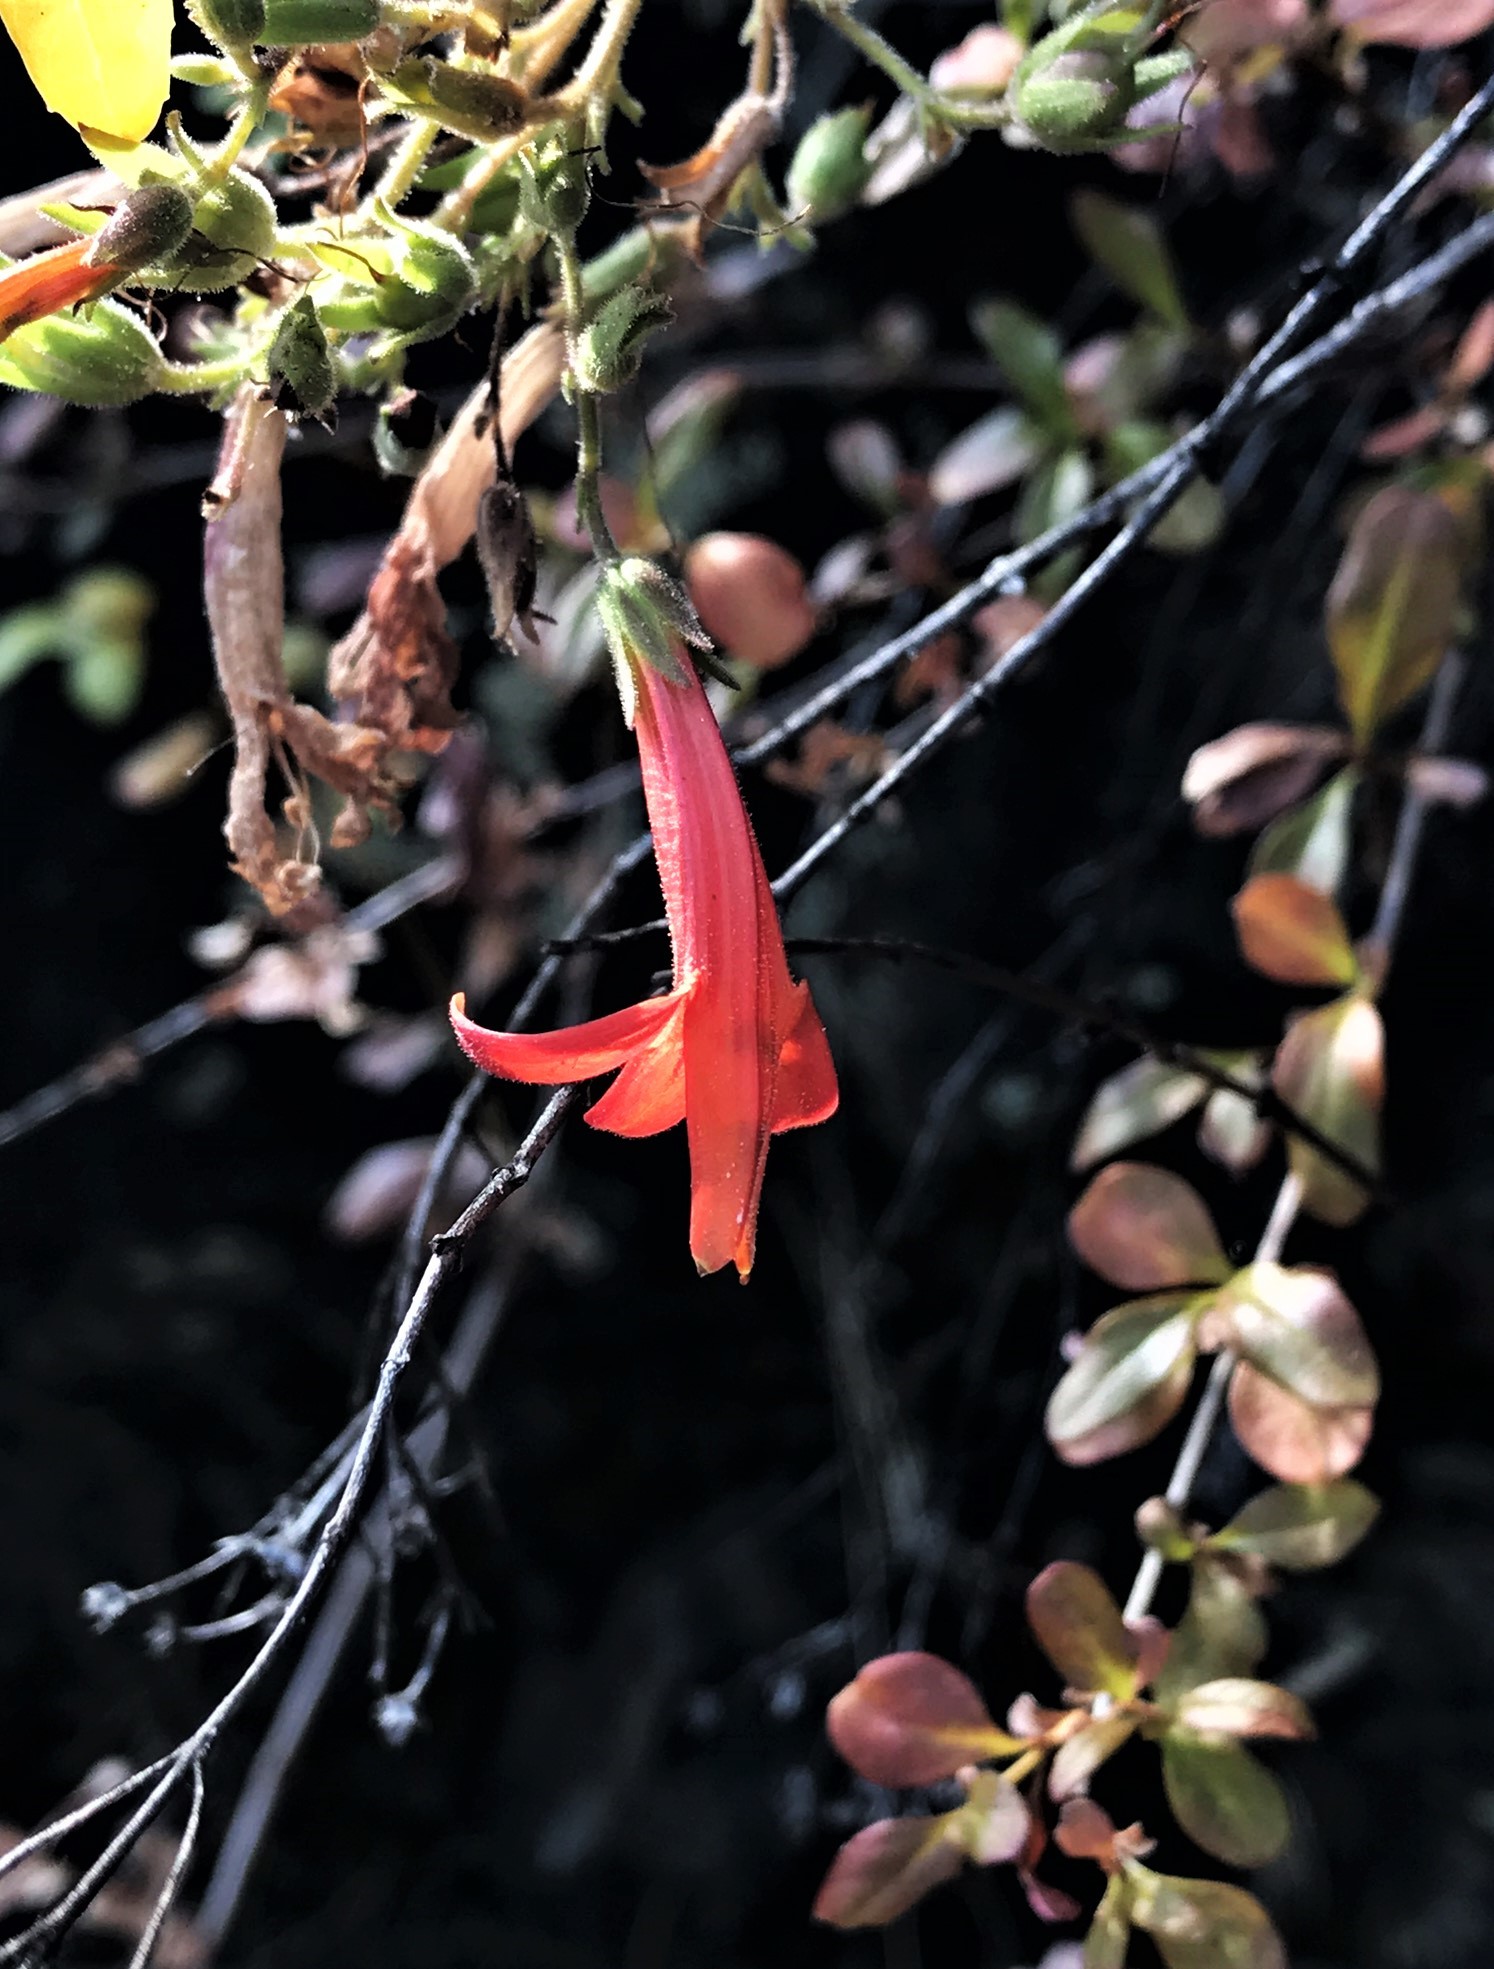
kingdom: Plantae
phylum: Tracheophyta
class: Magnoliopsida
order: Lamiales
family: Plantaginaceae
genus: Keckiella
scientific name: Keckiella corymbosa
